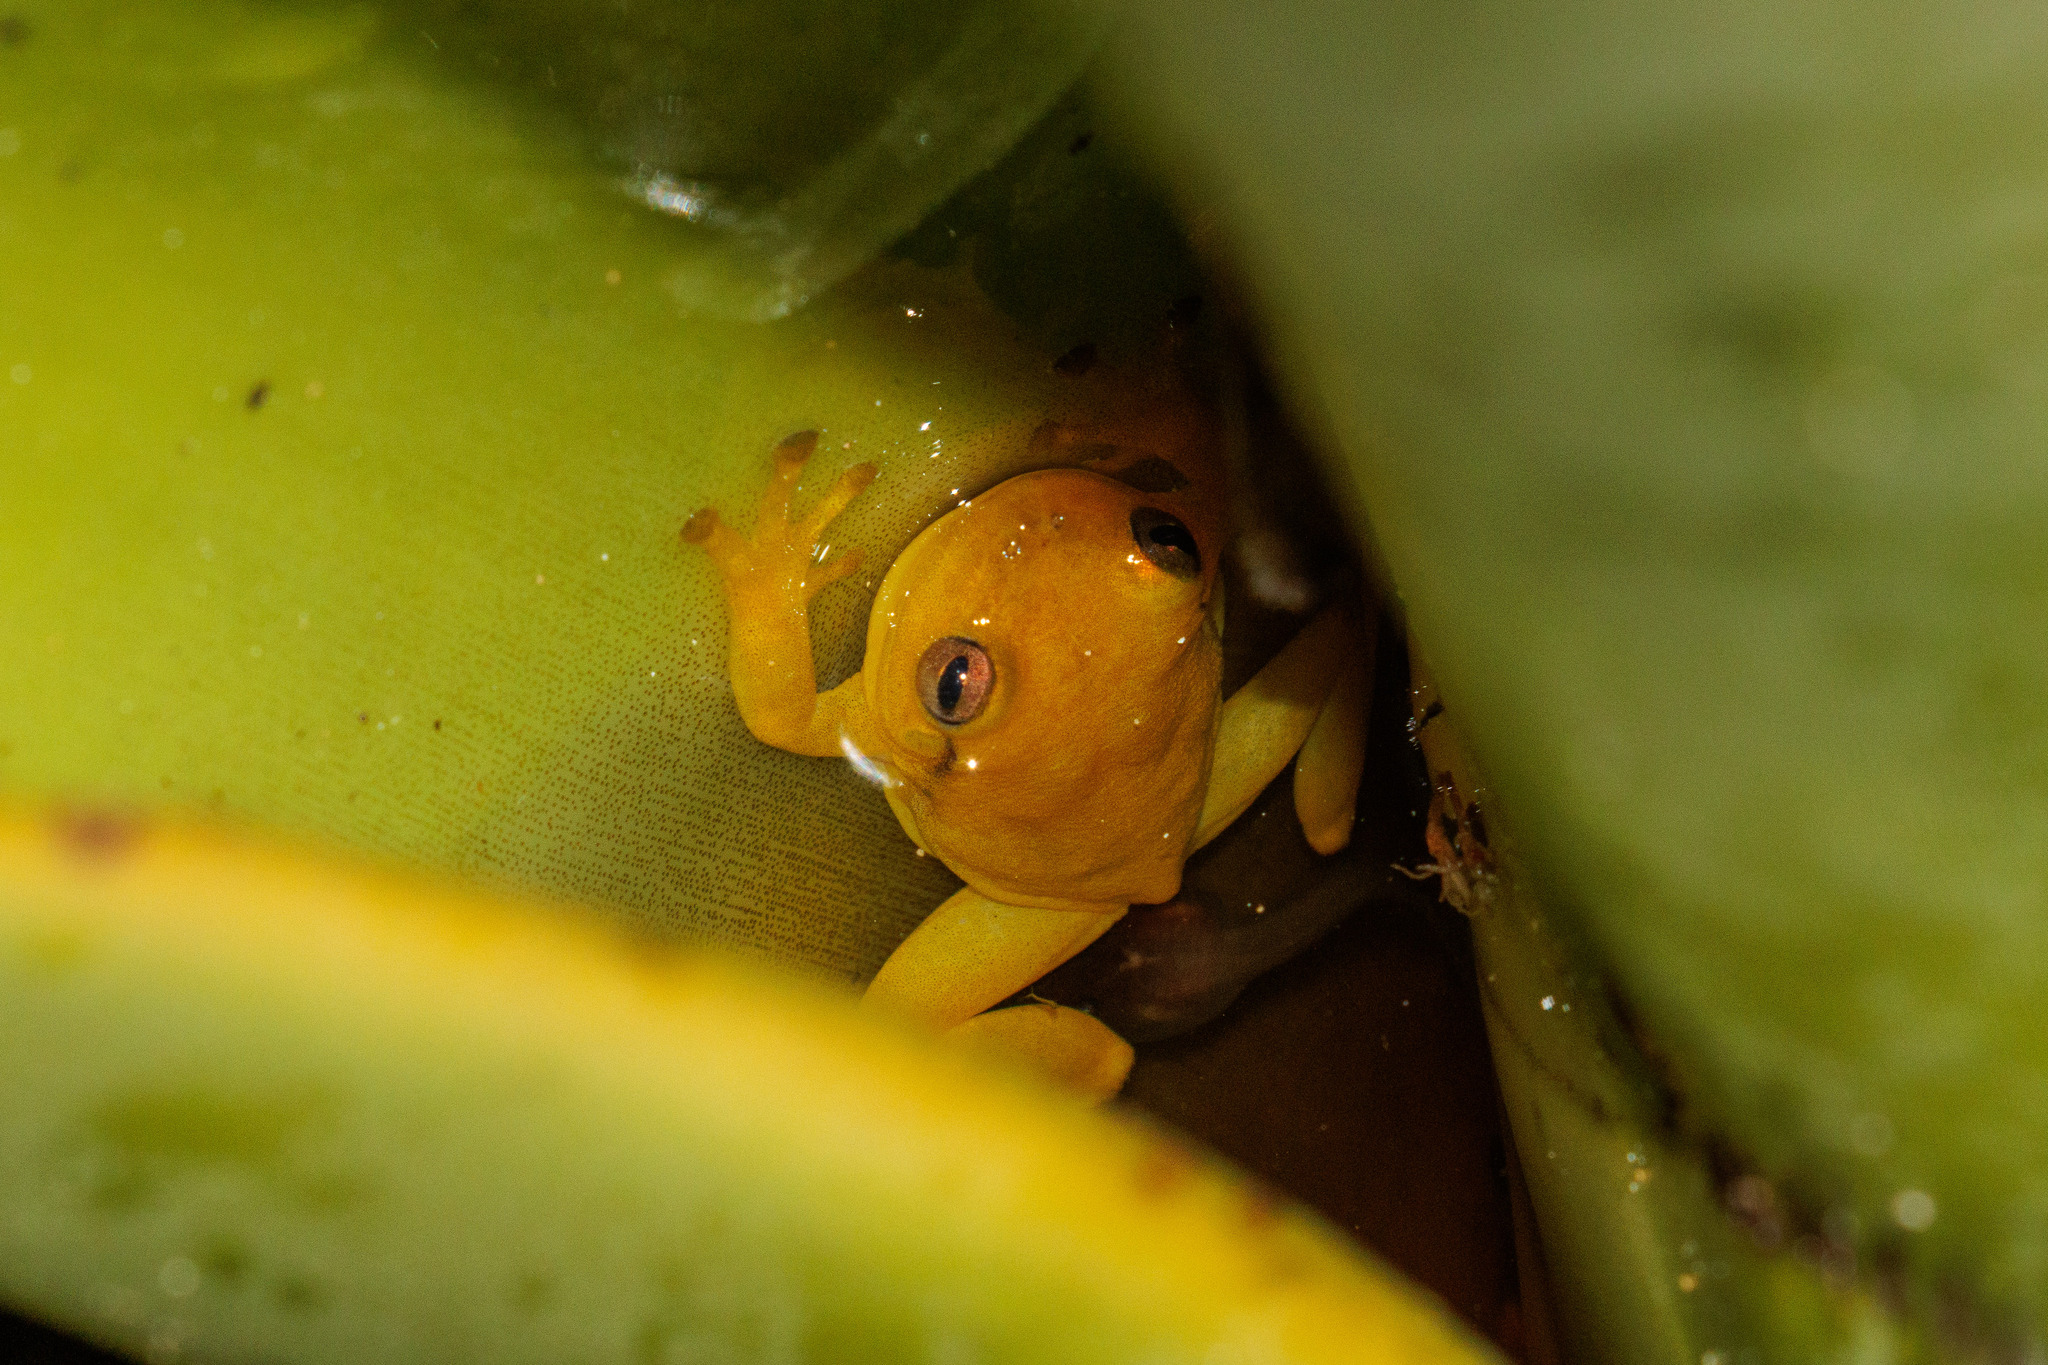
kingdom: Animalia
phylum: Chordata
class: Amphibia
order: Anura
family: Hylidae
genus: Phyllodytes
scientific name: Phyllodytes edelmoi
